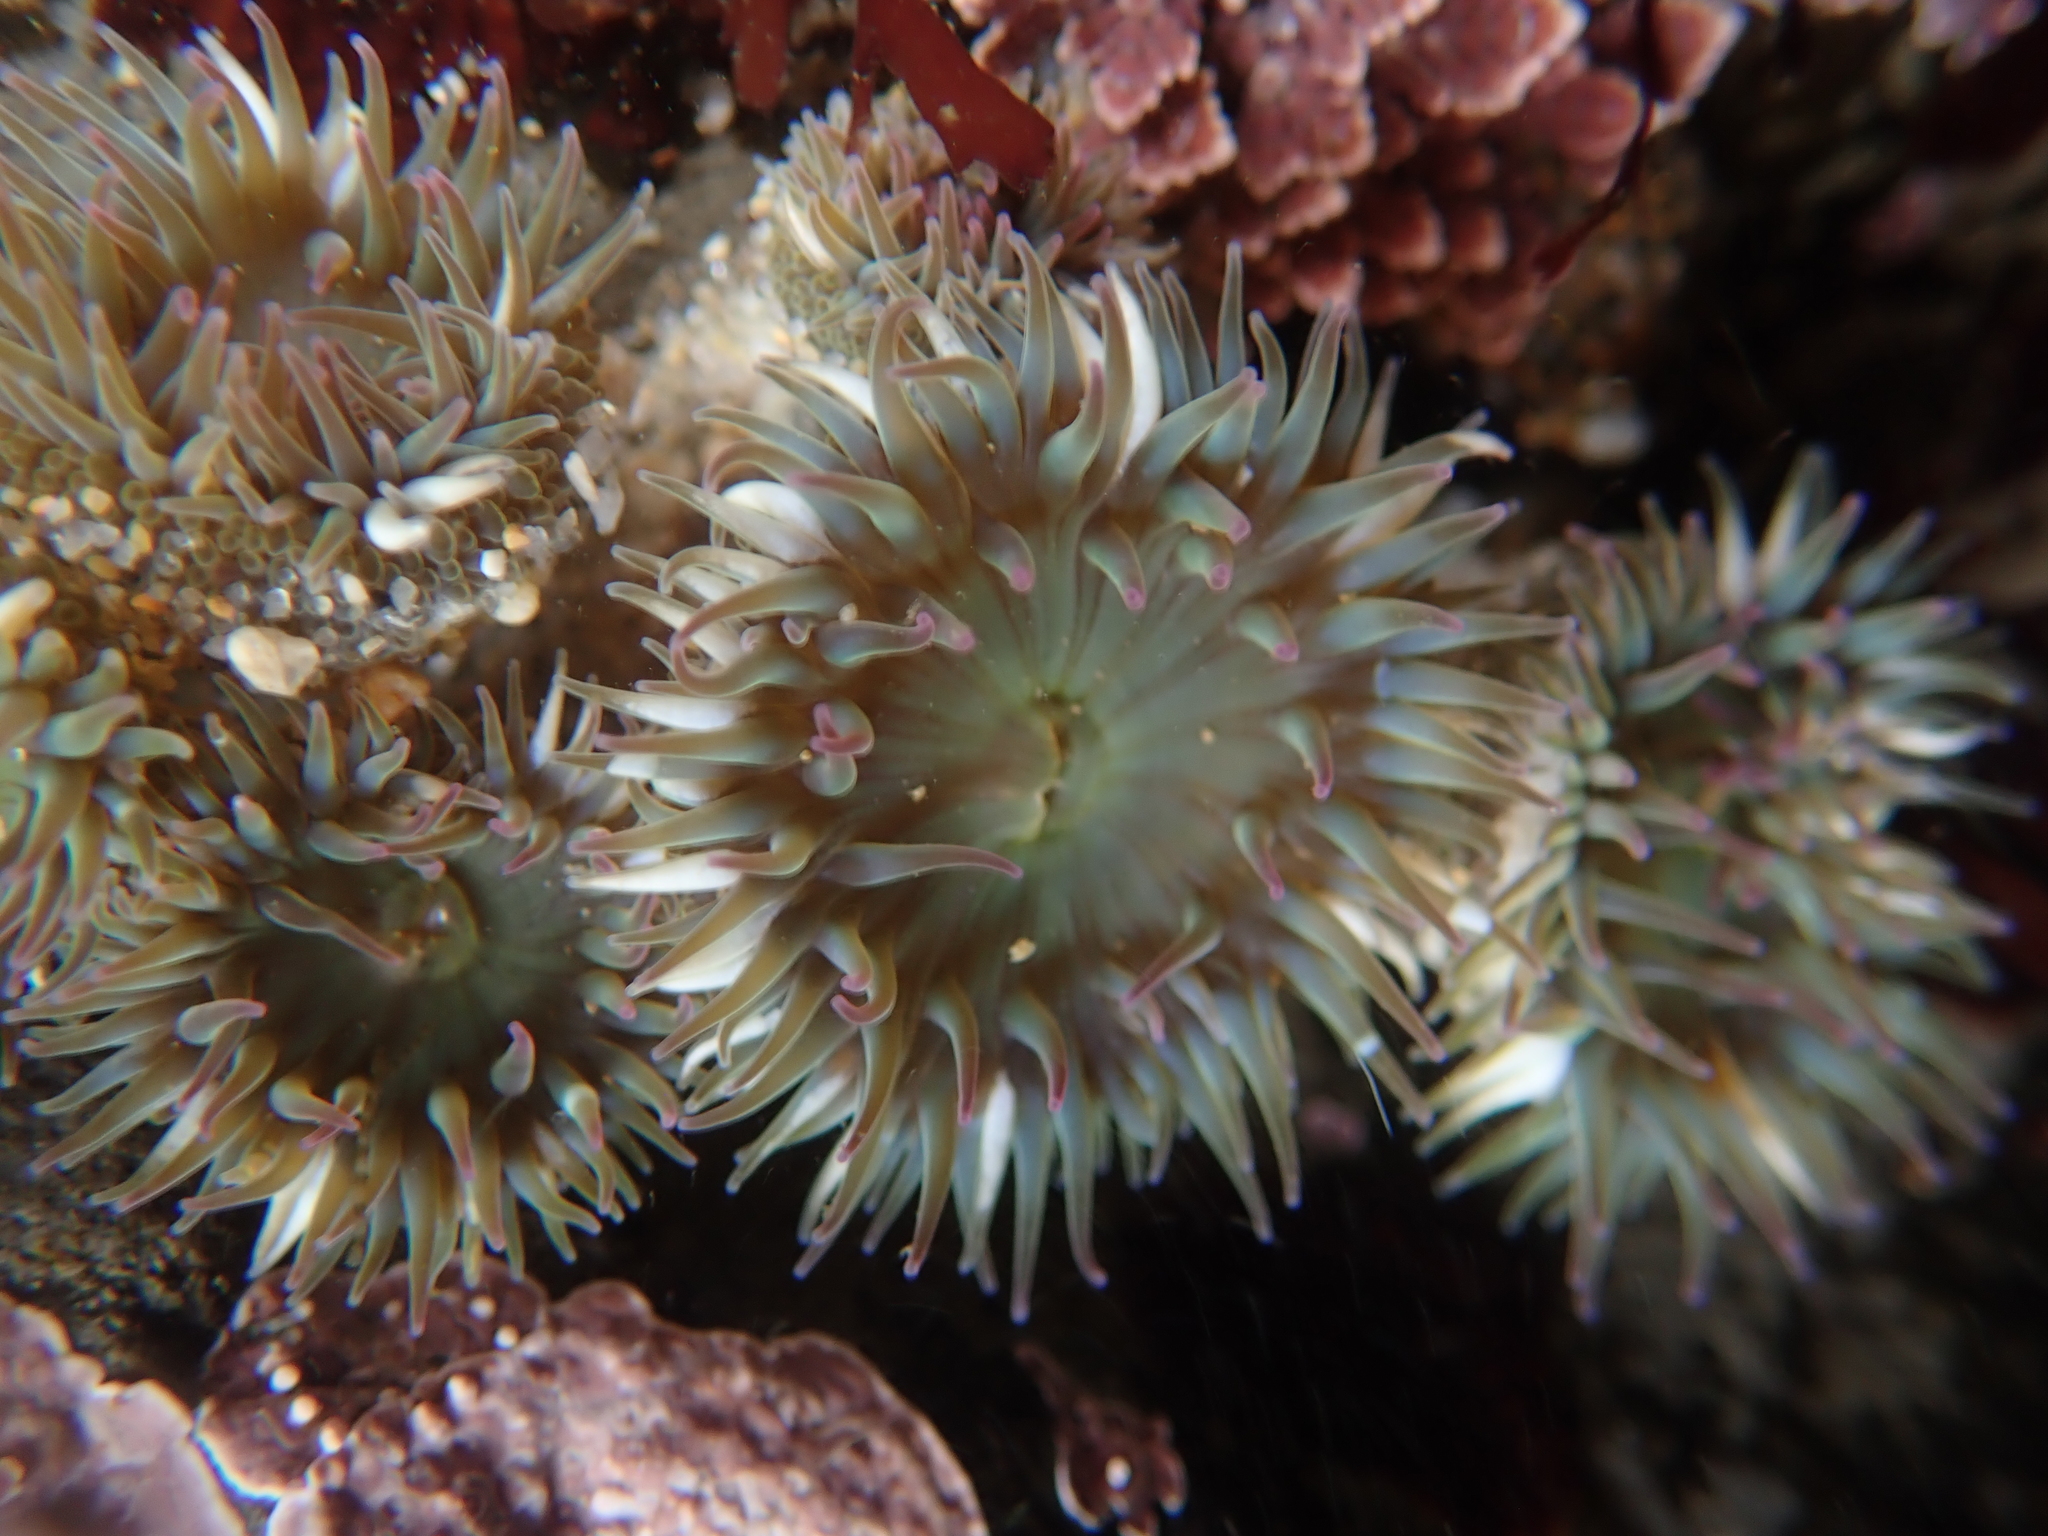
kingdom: Animalia
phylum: Cnidaria
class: Anthozoa
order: Actiniaria
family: Actiniidae
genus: Anthopleura
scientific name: Anthopleura elegantissima
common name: Clonal anemone
